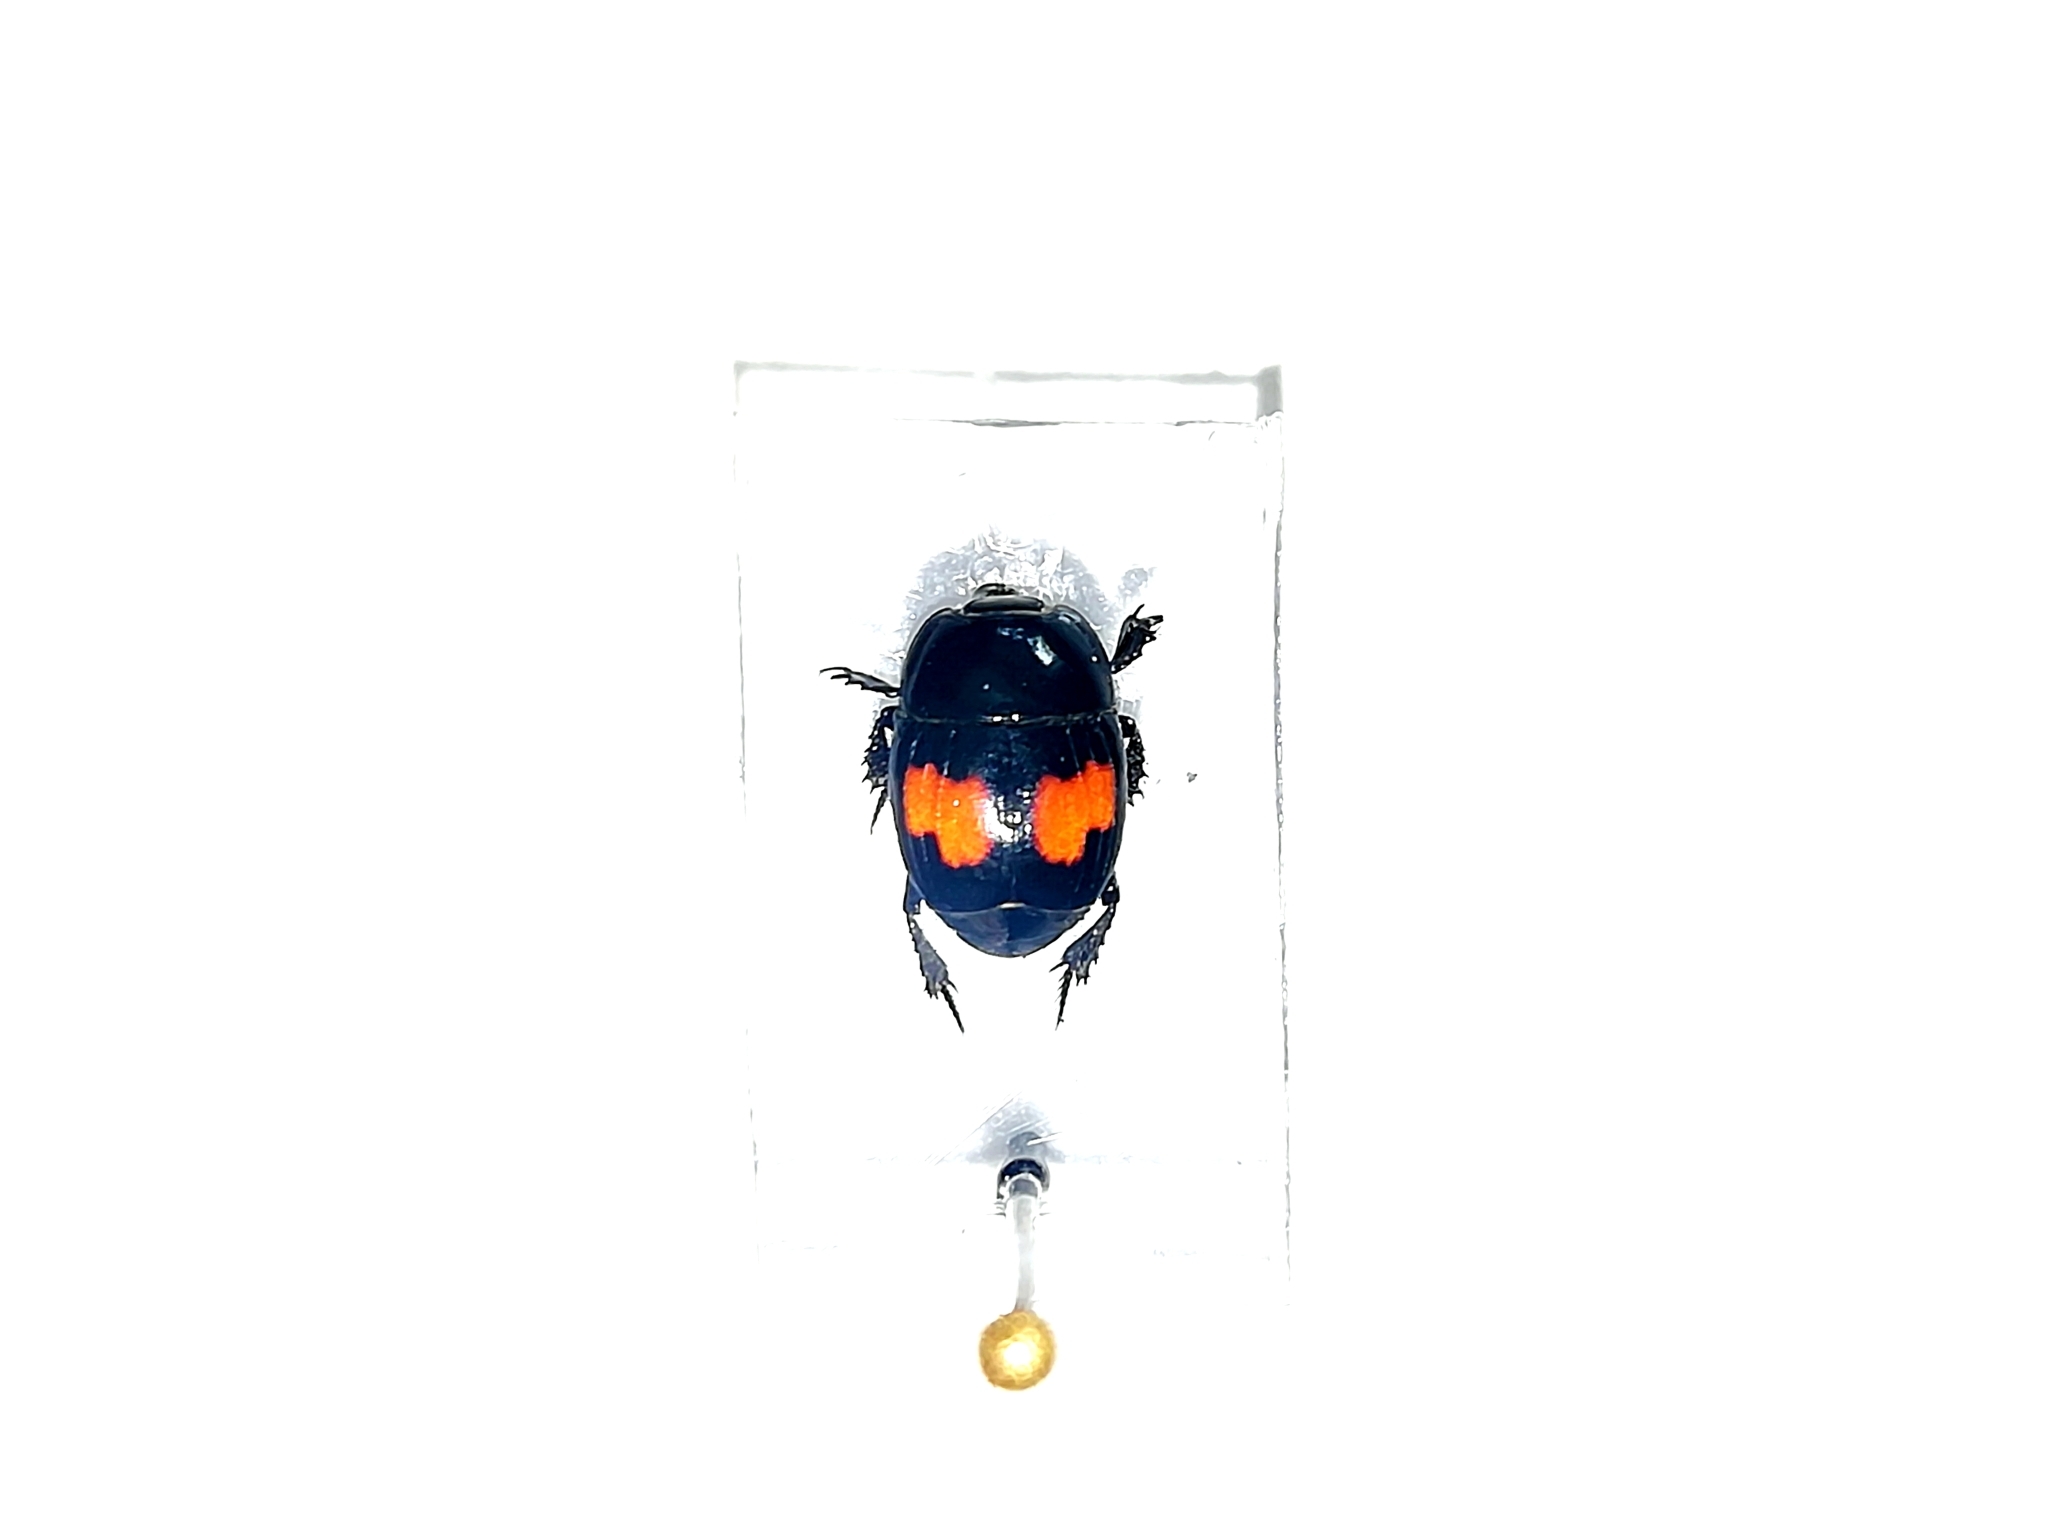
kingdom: Animalia
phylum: Arthropoda
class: Insecta
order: Coleoptera
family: Histeridae
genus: Margarinotus
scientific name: Margarinotus bipustulatus
